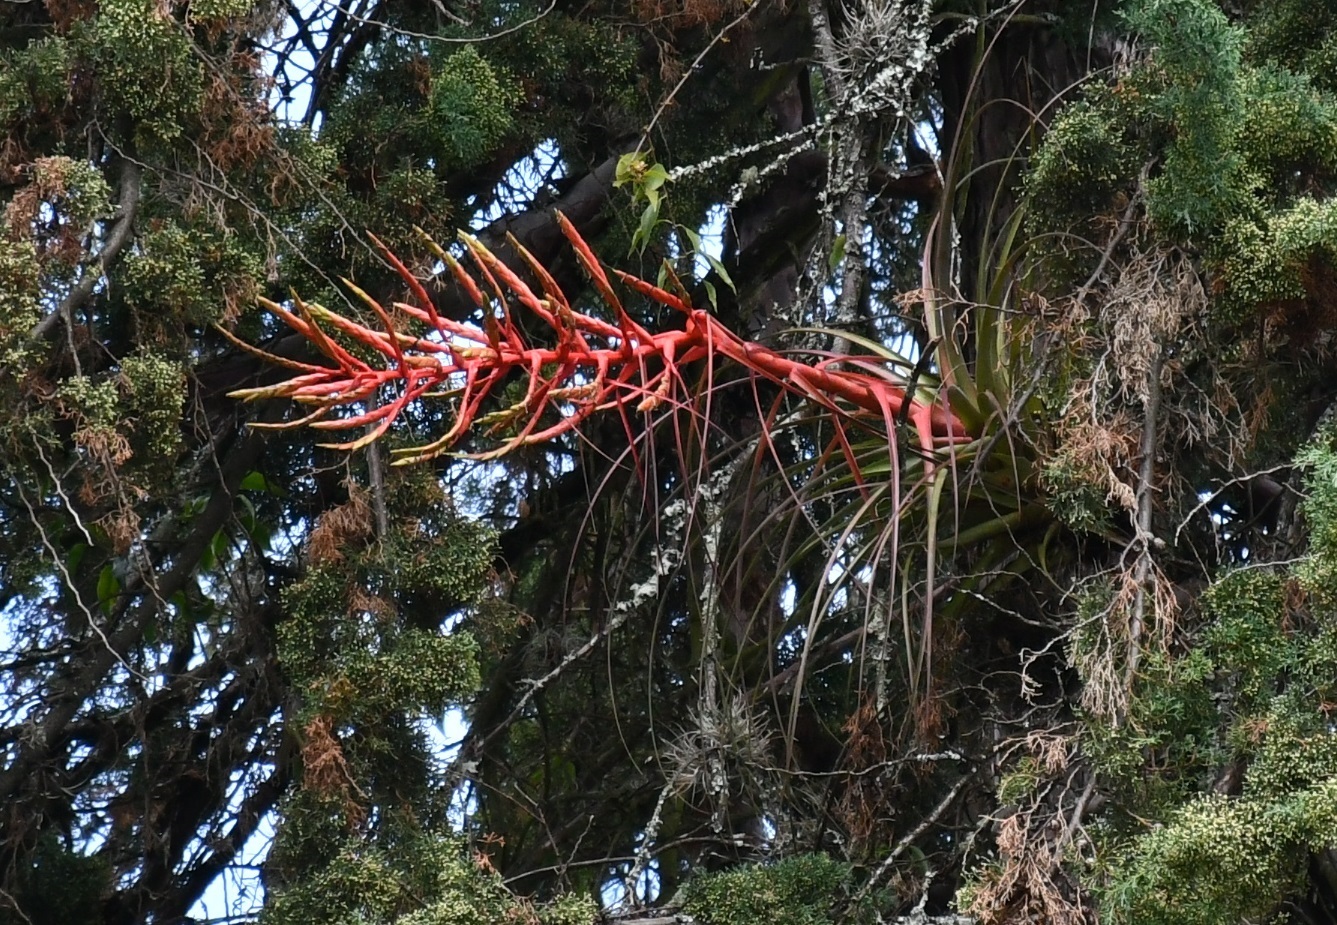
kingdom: Plantae
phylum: Tracheophyta
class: Liliopsida
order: Poales
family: Bromeliaceae
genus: Tillandsia
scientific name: Tillandsia calothyrsus
